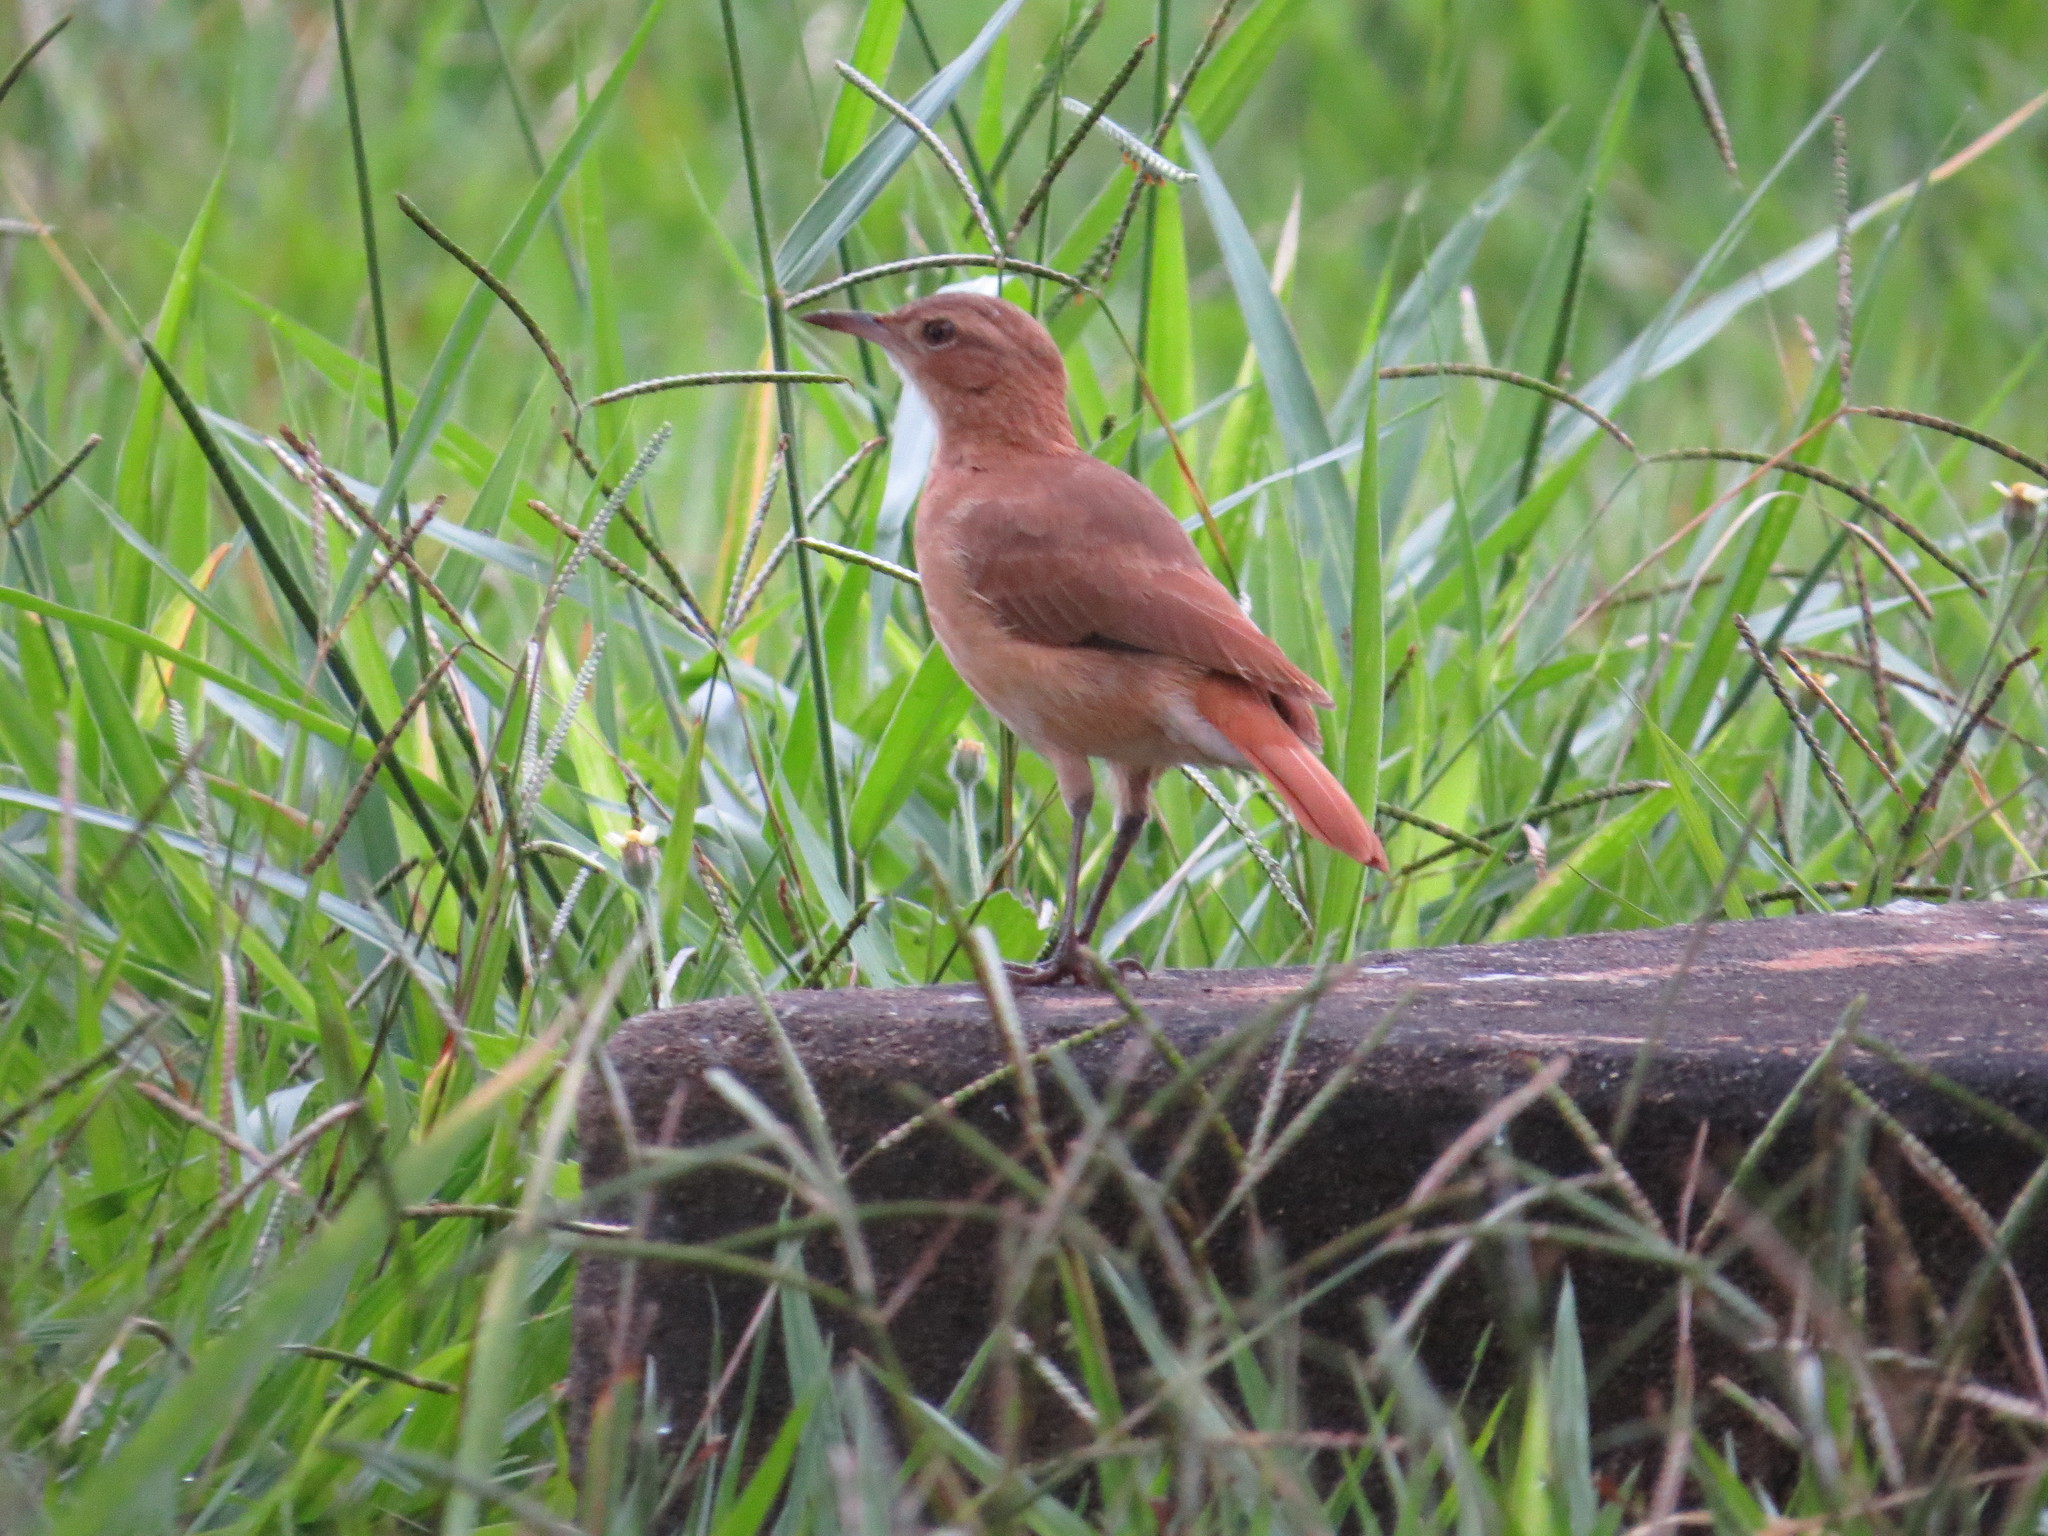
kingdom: Animalia
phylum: Chordata
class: Aves
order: Passeriformes
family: Furnariidae
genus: Furnarius
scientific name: Furnarius rufus
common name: Rufous hornero
